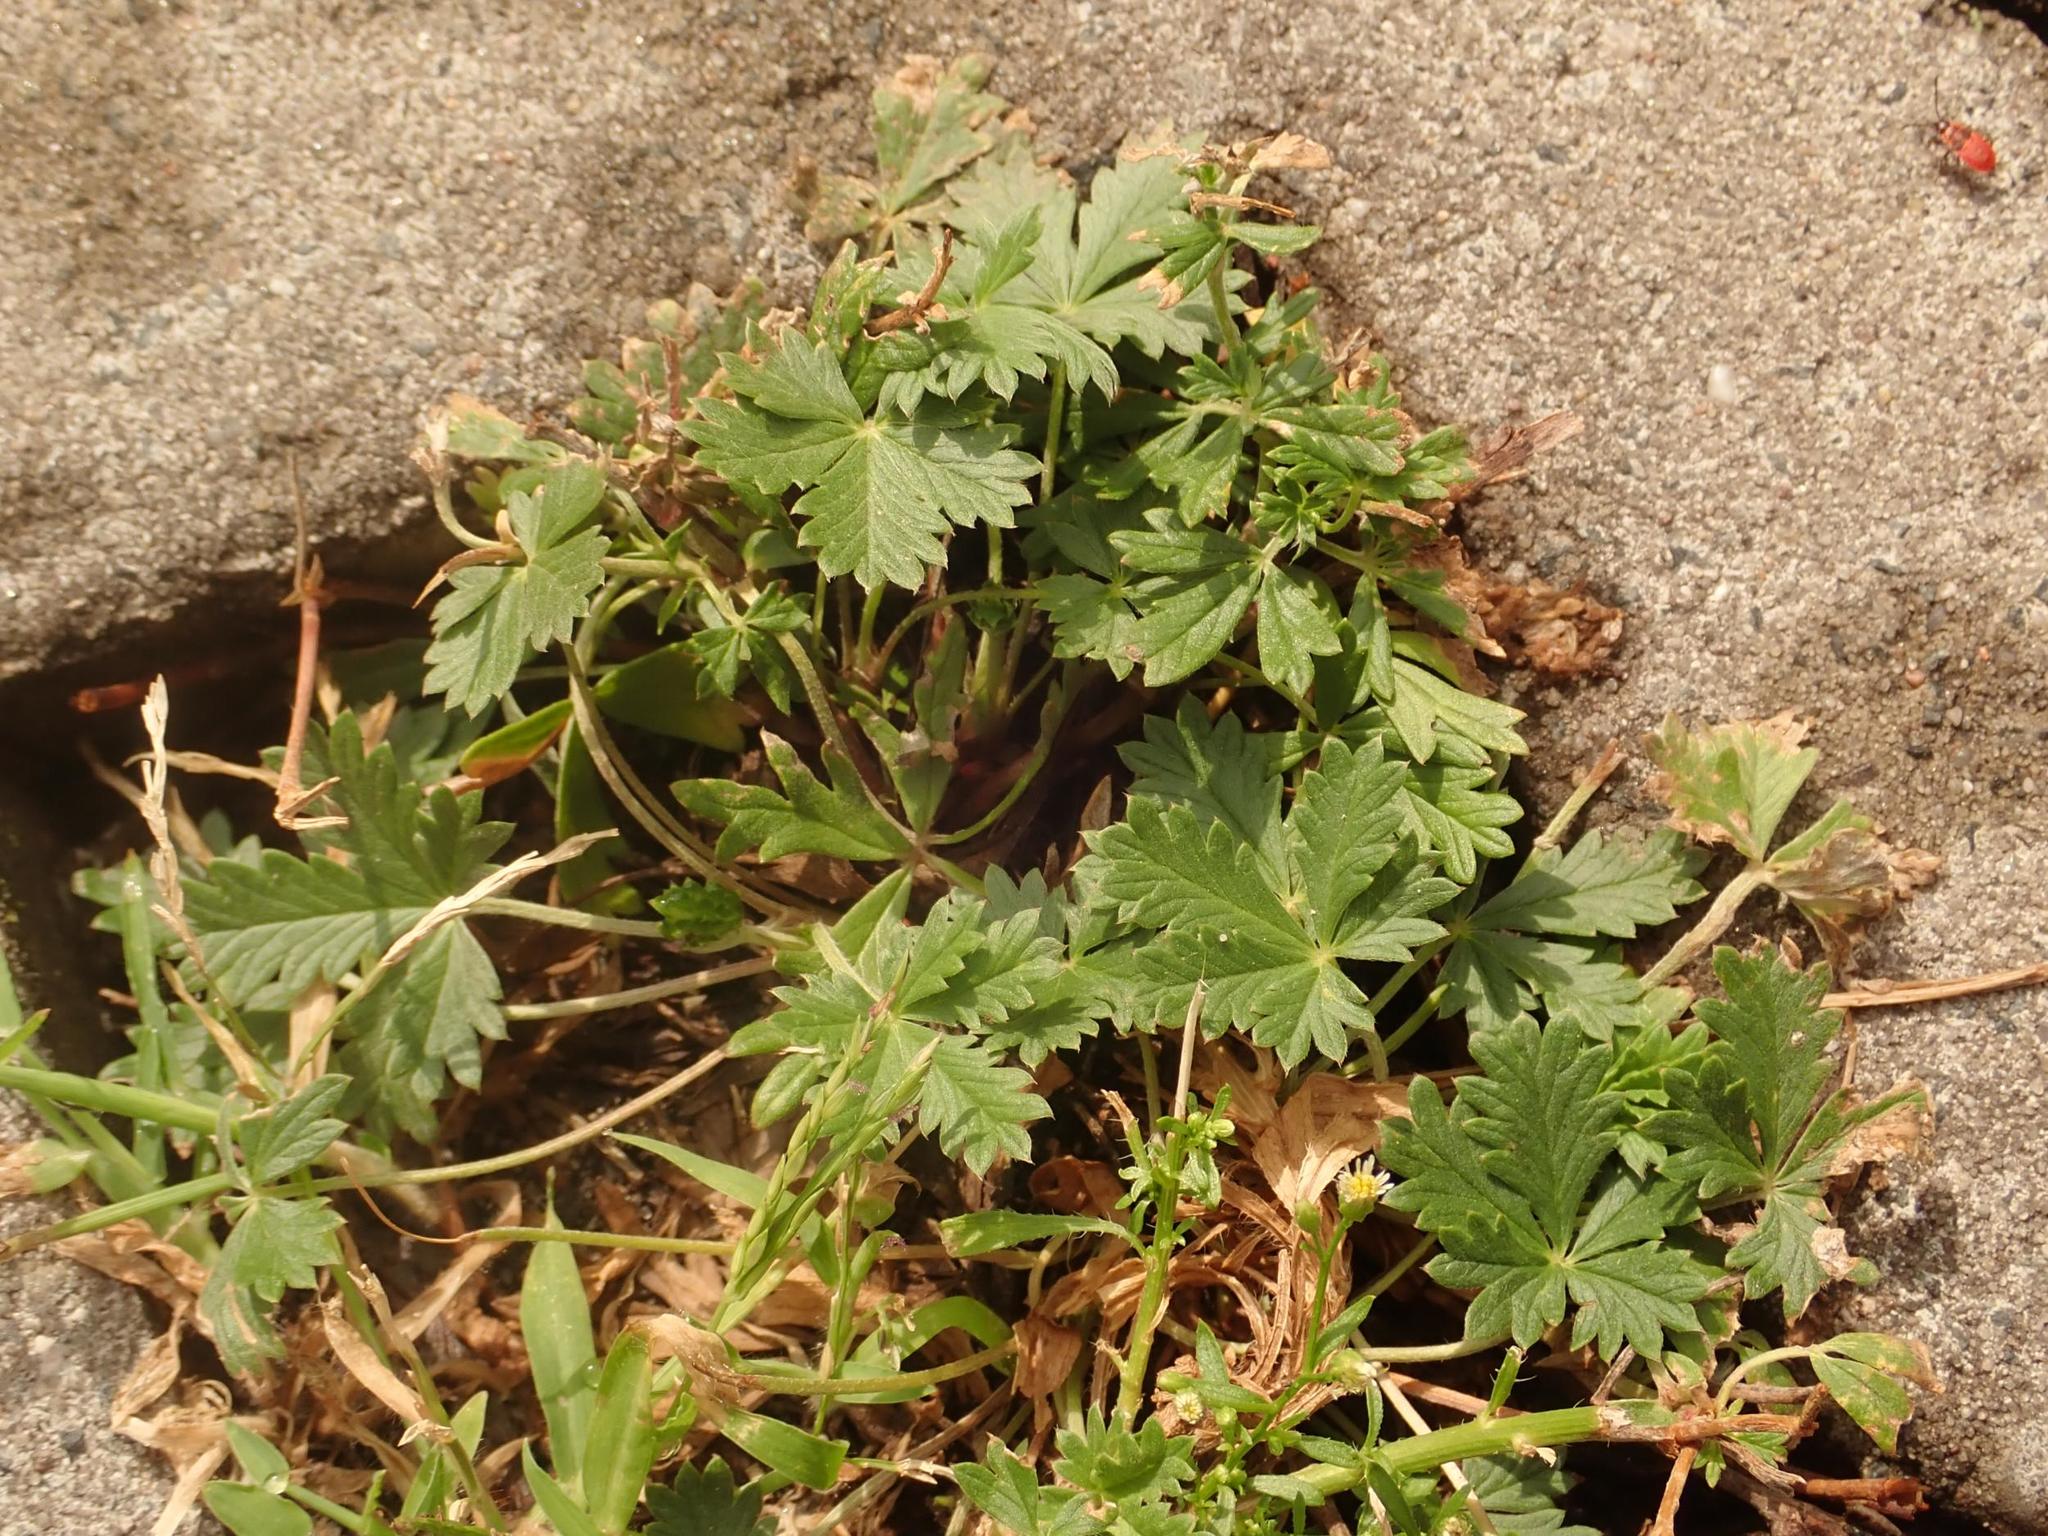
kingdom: Plantae
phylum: Tracheophyta
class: Magnoliopsida
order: Rosales
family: Rosaceae
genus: Potentilla
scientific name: Potentilla argentea
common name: Hoary cinquefoil
